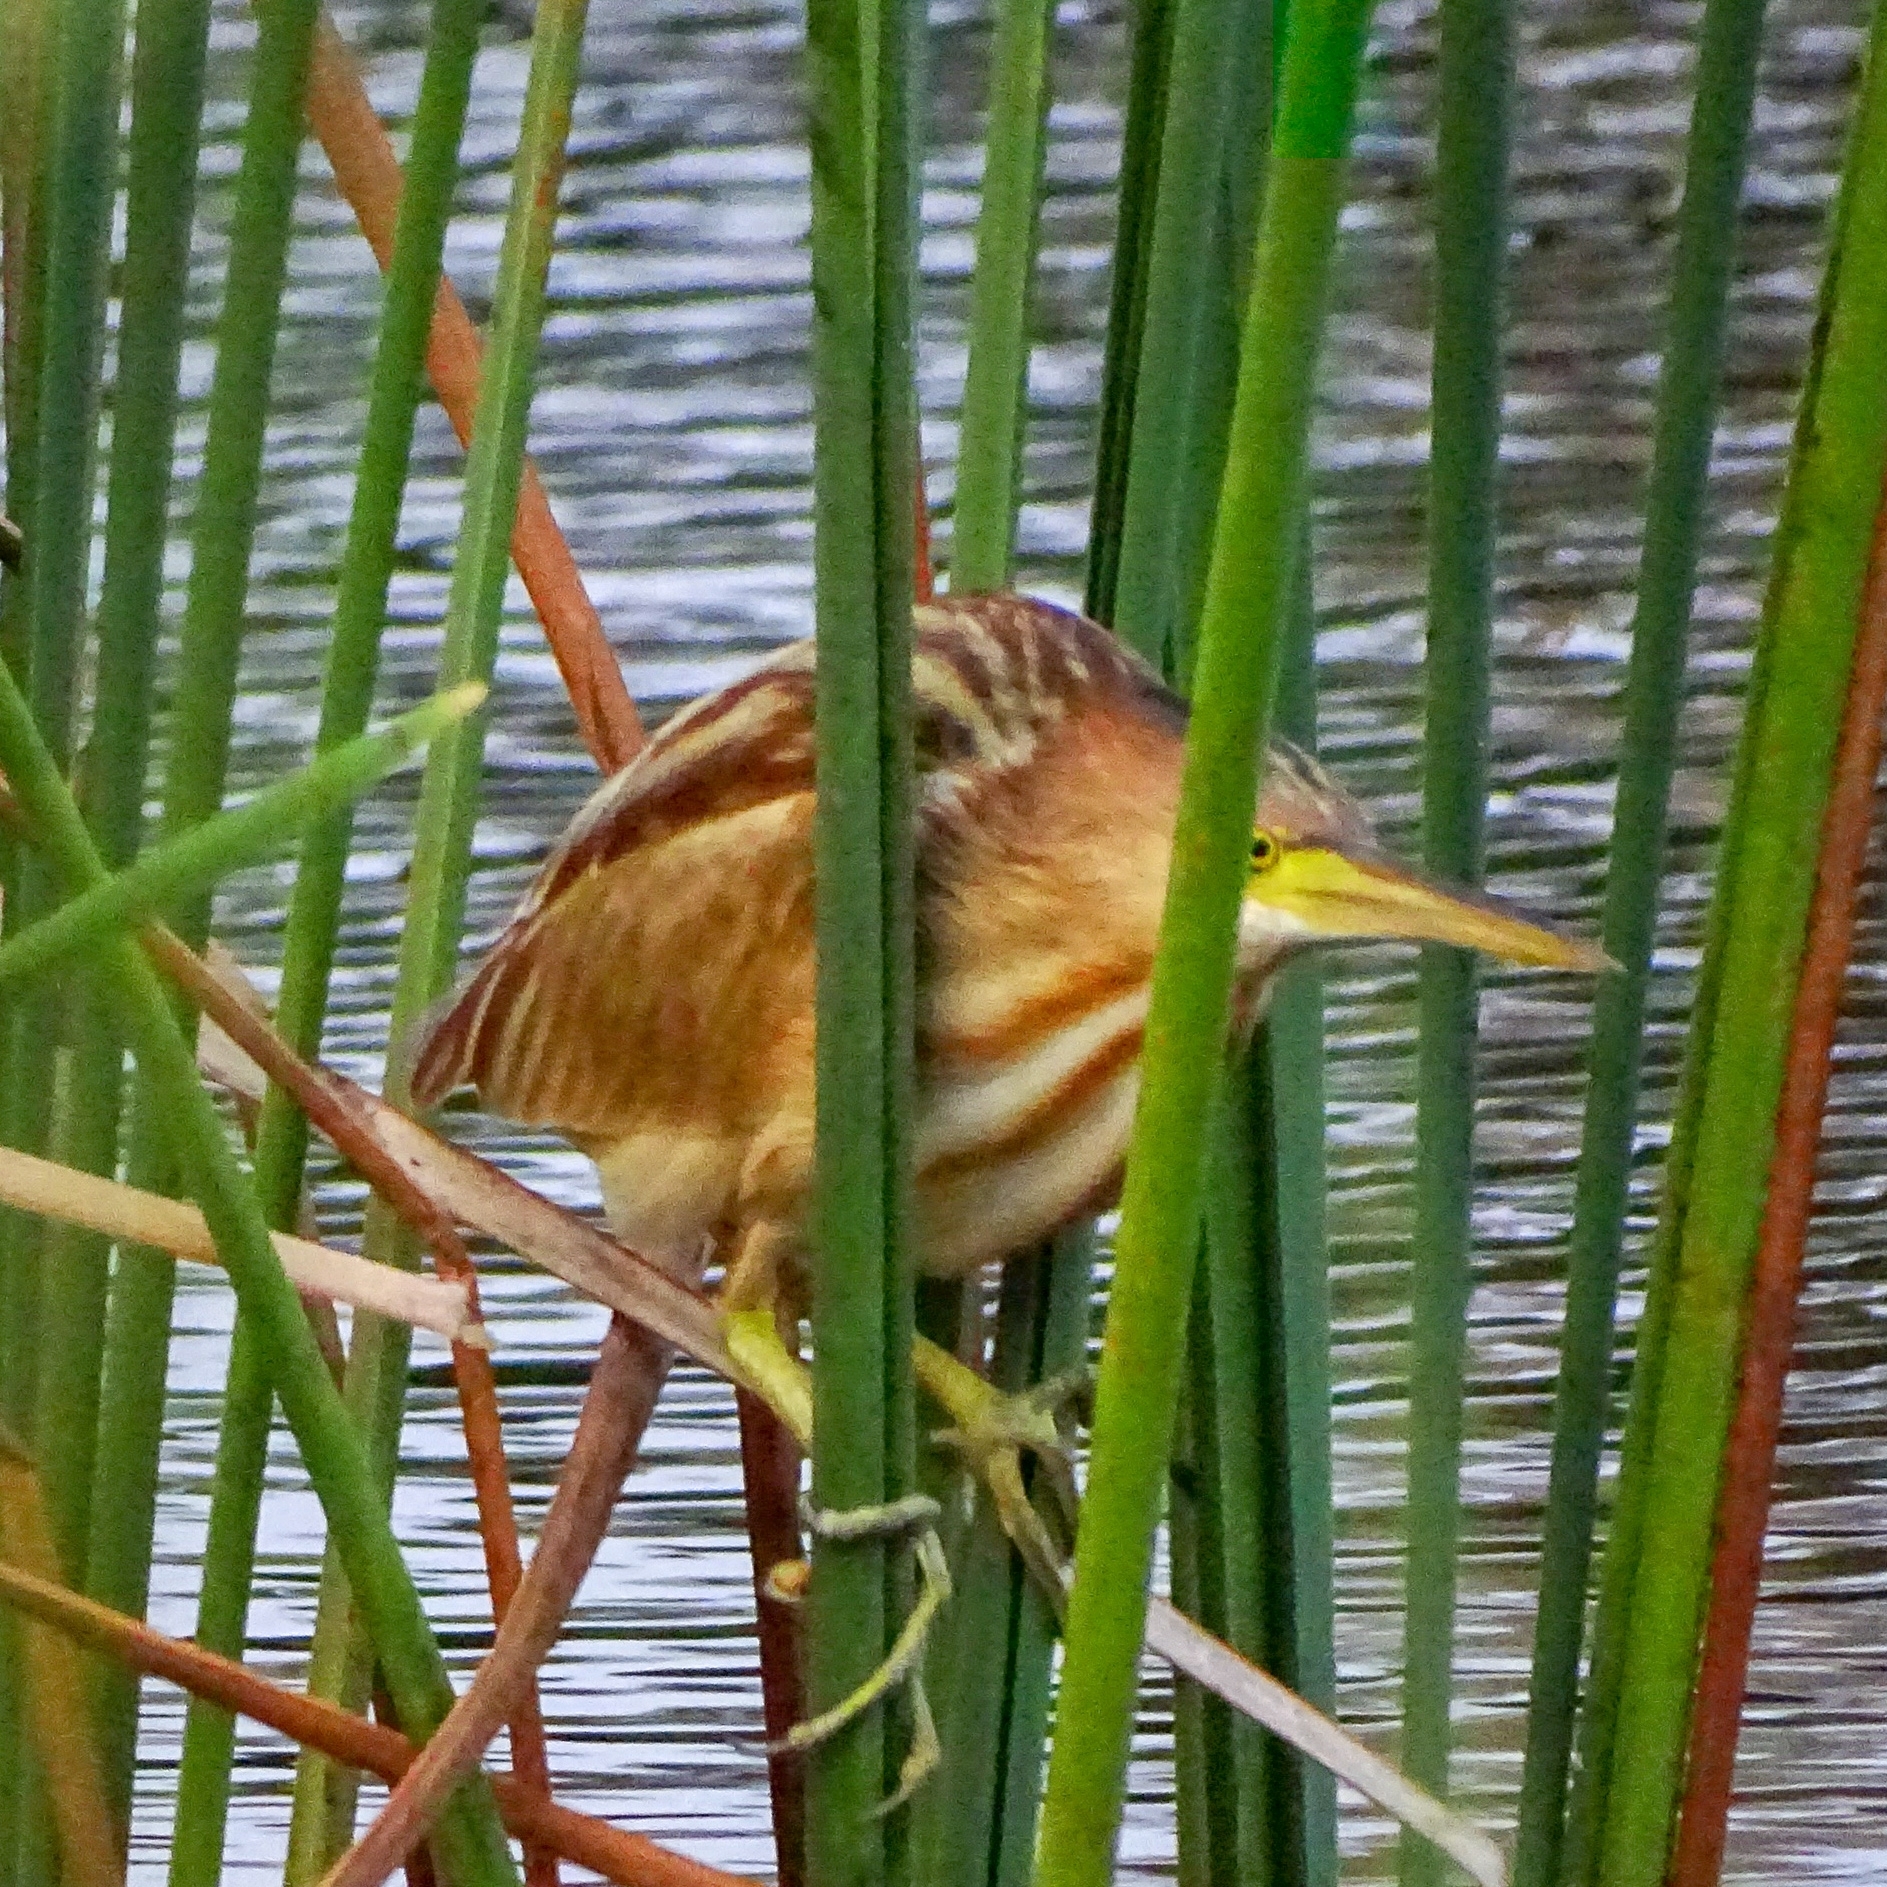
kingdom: Animalia
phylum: Chordata
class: Aves
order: Pelecaniformes
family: Ardeidae
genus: Ixobrychus
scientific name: Ixobrychus sinensis
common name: Yellow bittern
